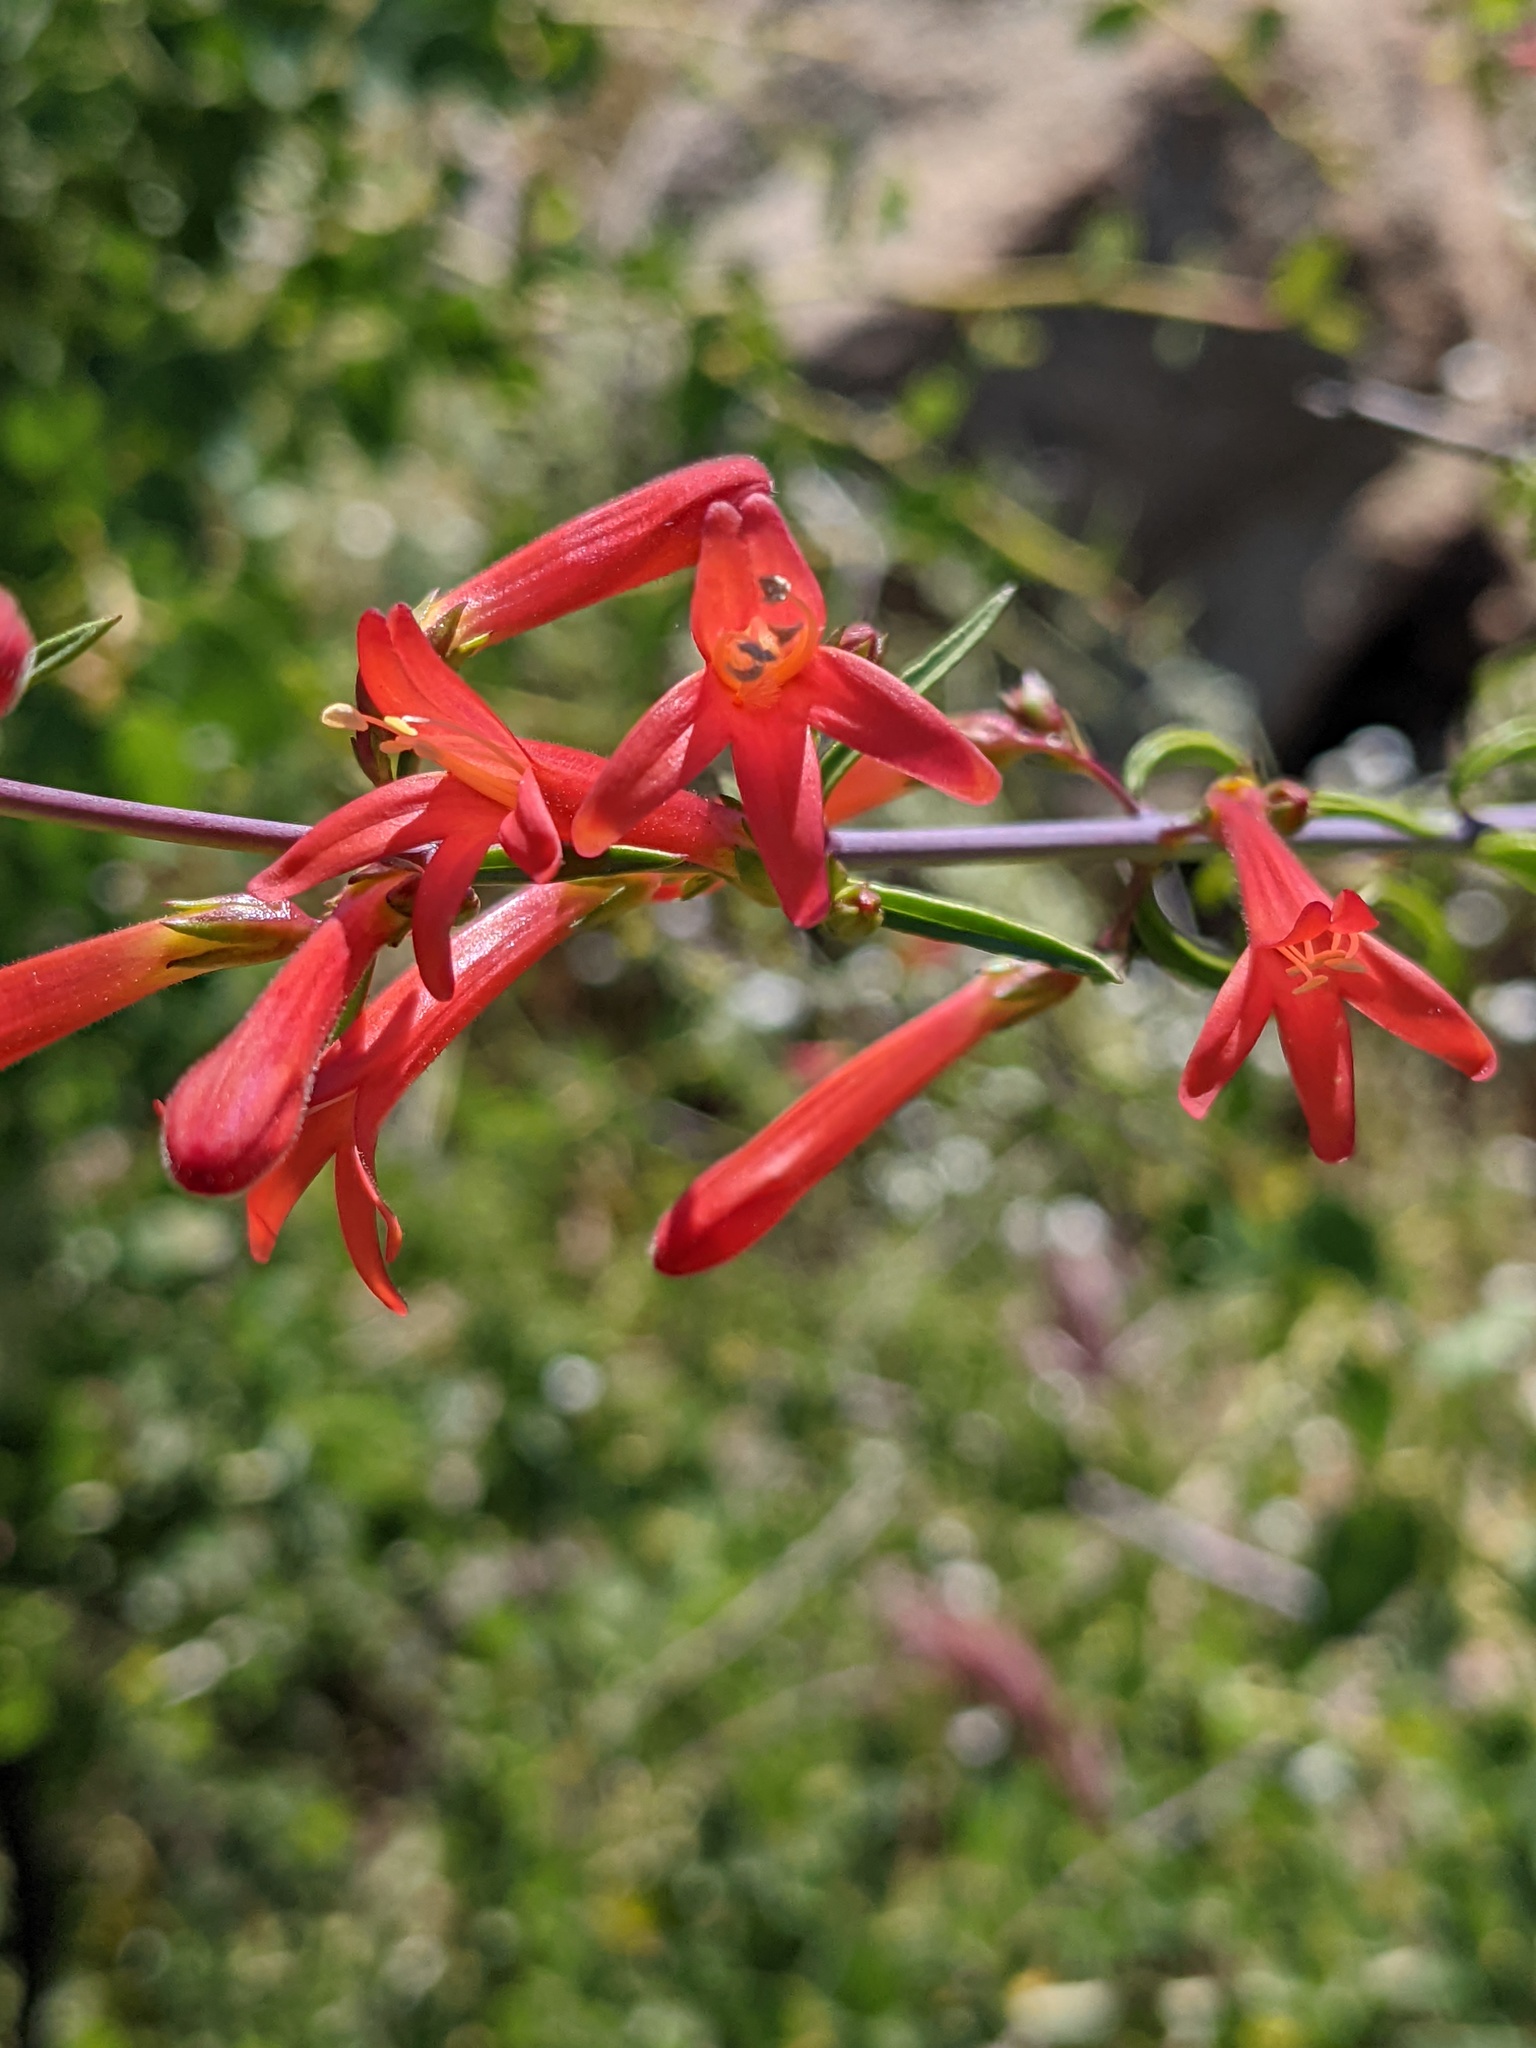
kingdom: Plantae
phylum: Tracheophyta
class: Magnoliopsida
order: Lamiales
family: Plantaginaceae
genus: Keckiella
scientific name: Keckiella ternata
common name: Scarlet keckiella
